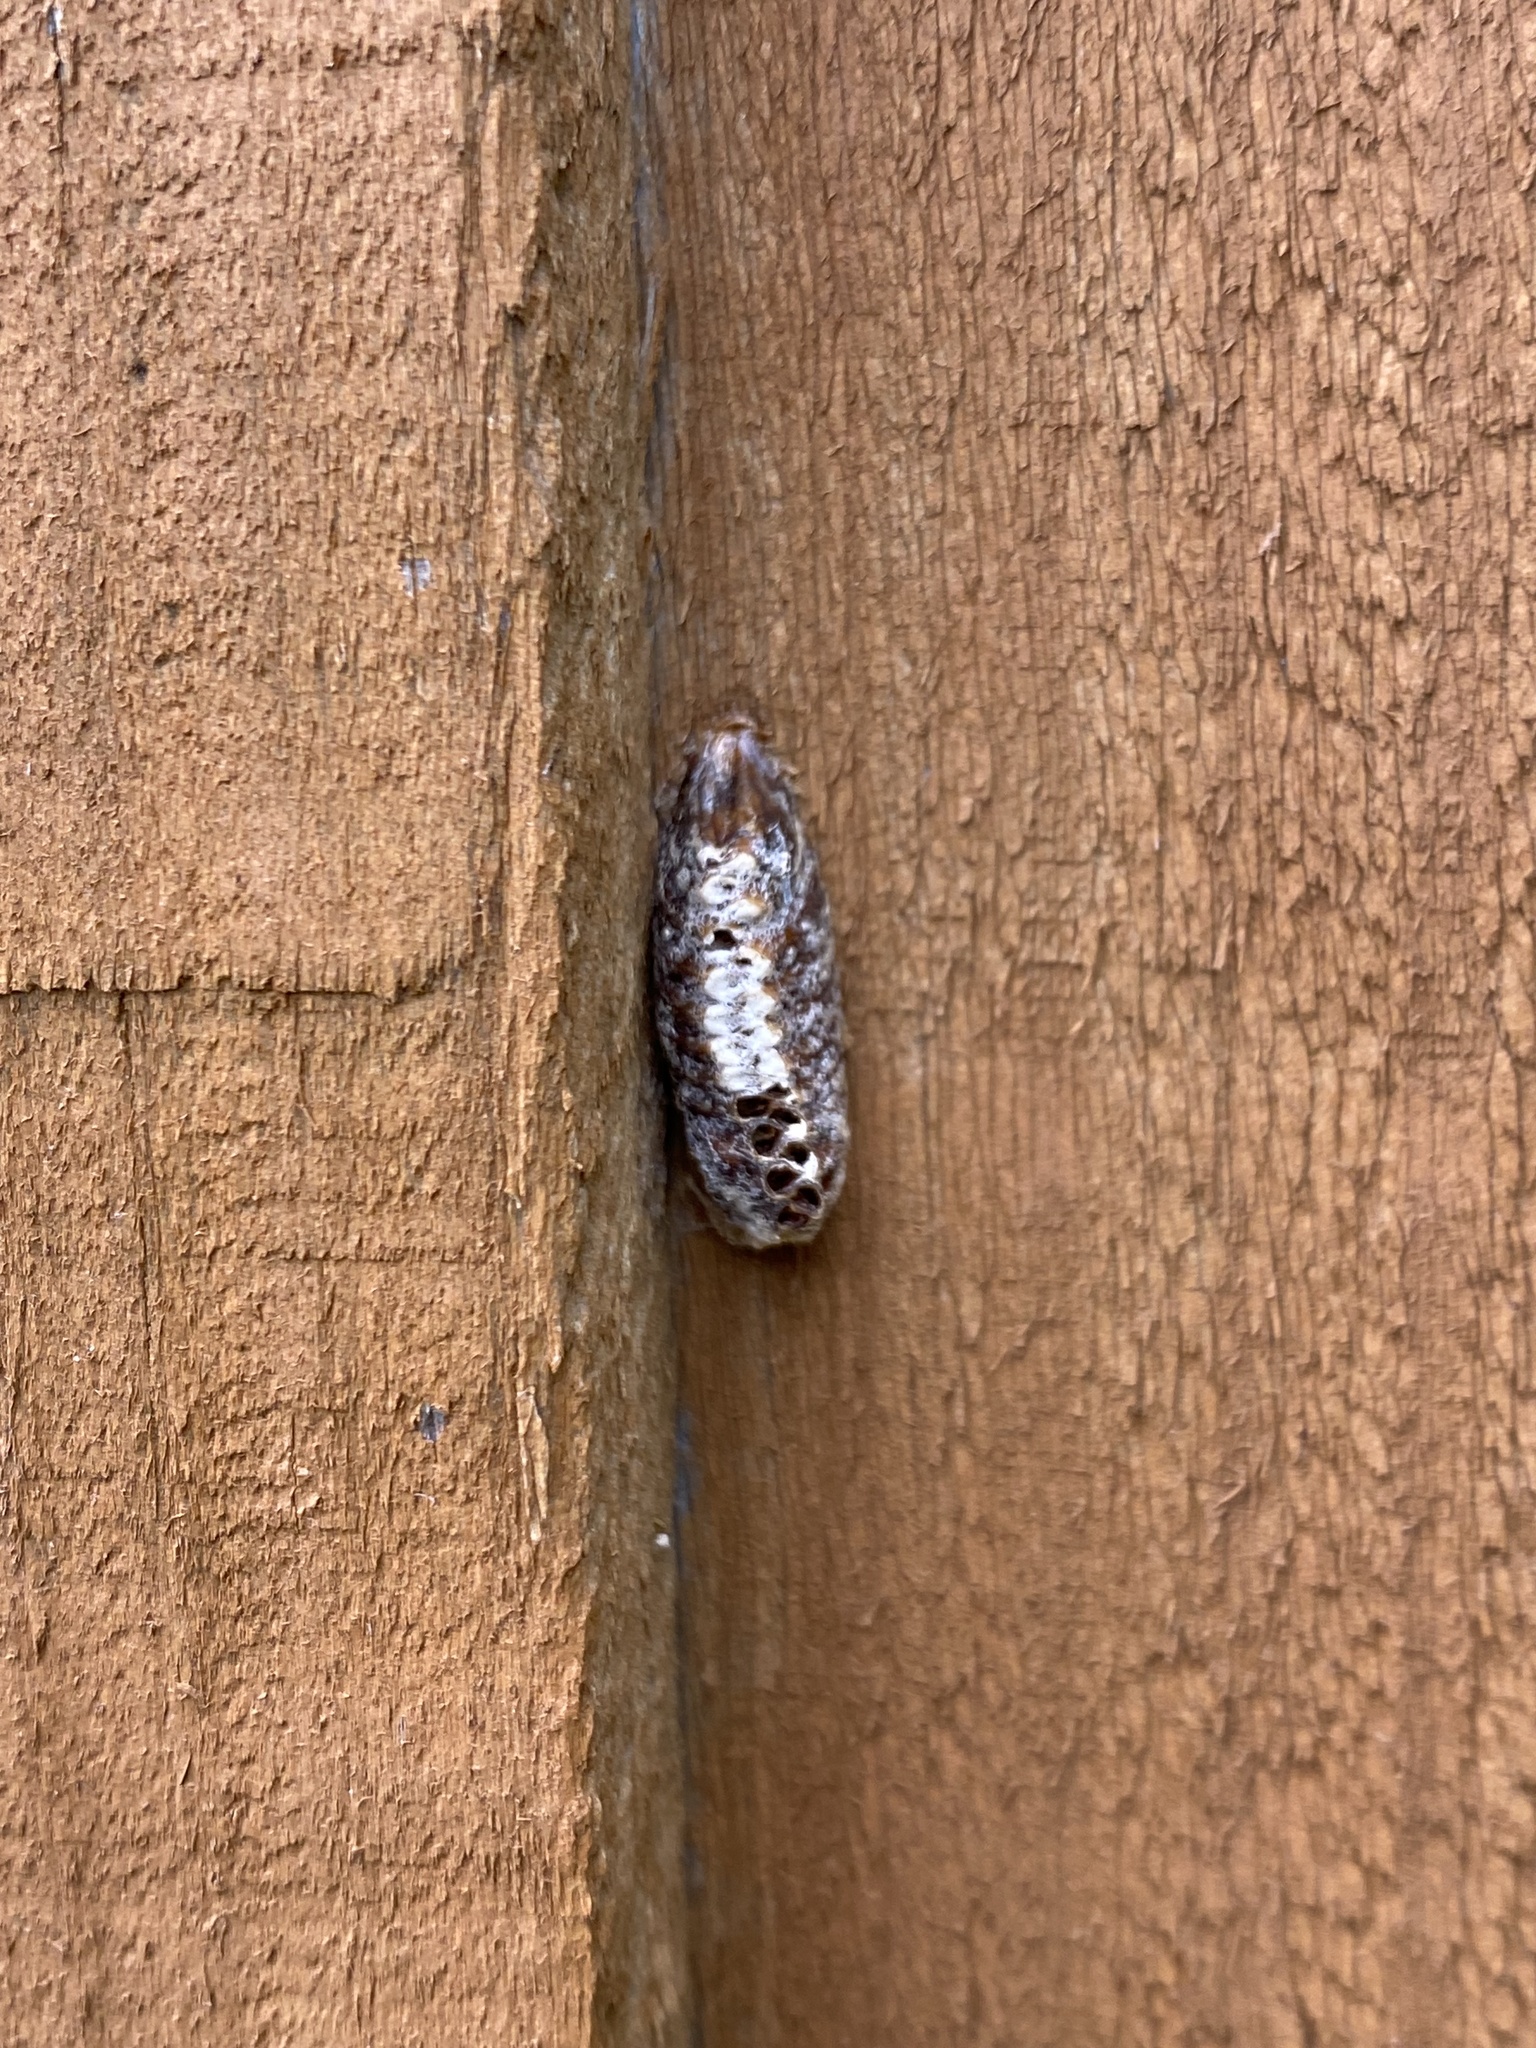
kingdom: Animalia
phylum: Arthropoda
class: Insecta
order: Mantodea
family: Mantidae
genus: Orthodera
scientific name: Orthodera novaezealandiae
